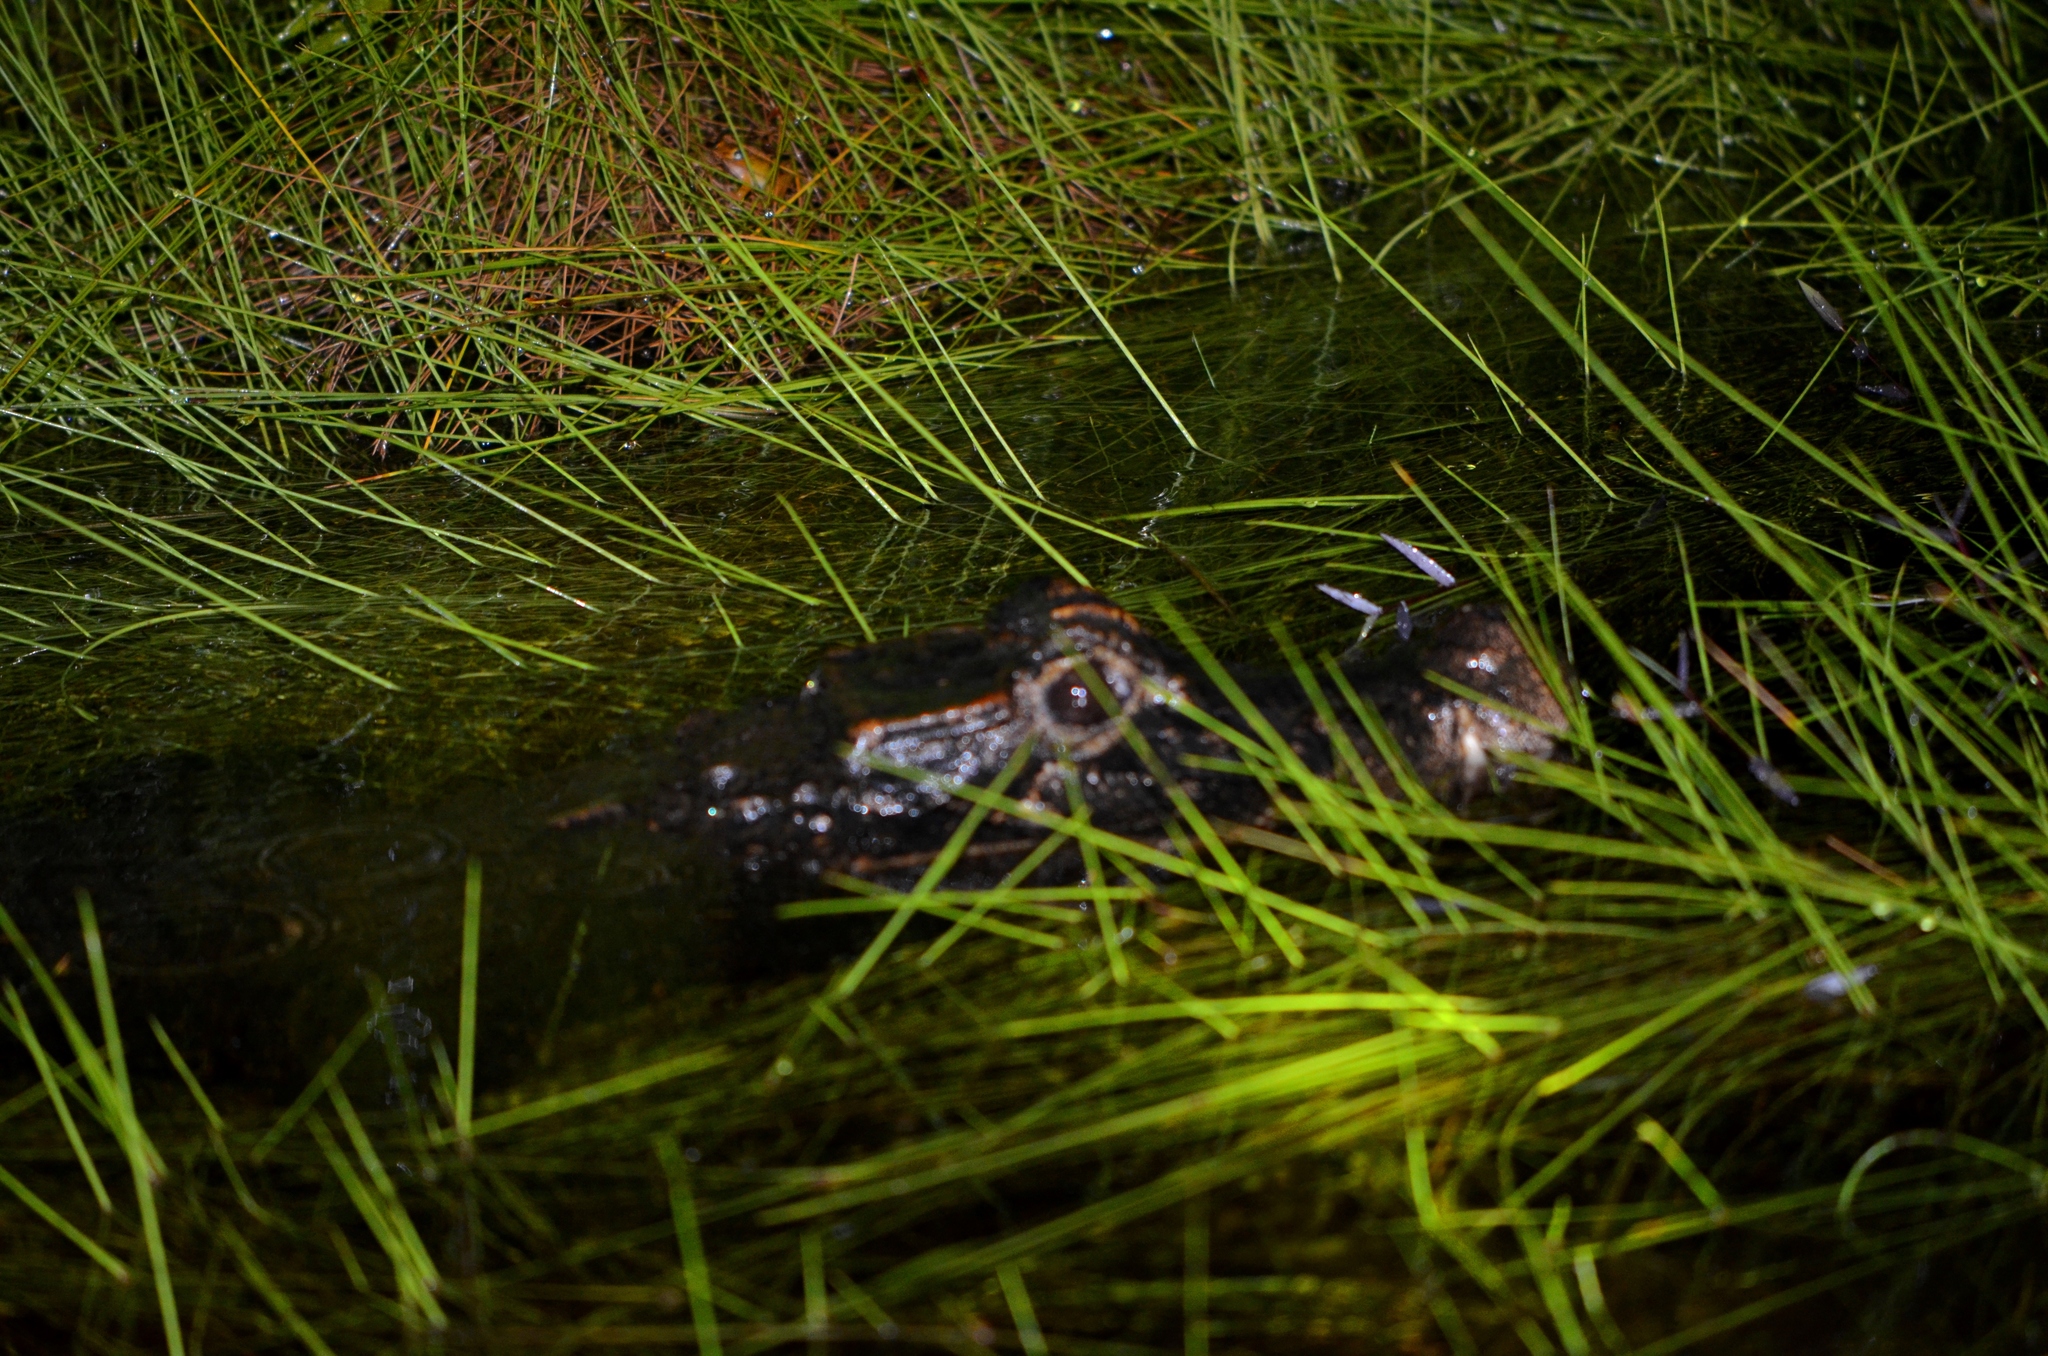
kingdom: Animalia
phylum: Chordata
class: Crocodylia
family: Crocodylidae
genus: Osteolaemus
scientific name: Osteolaemus osborni
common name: Congo dwarf crocodile
